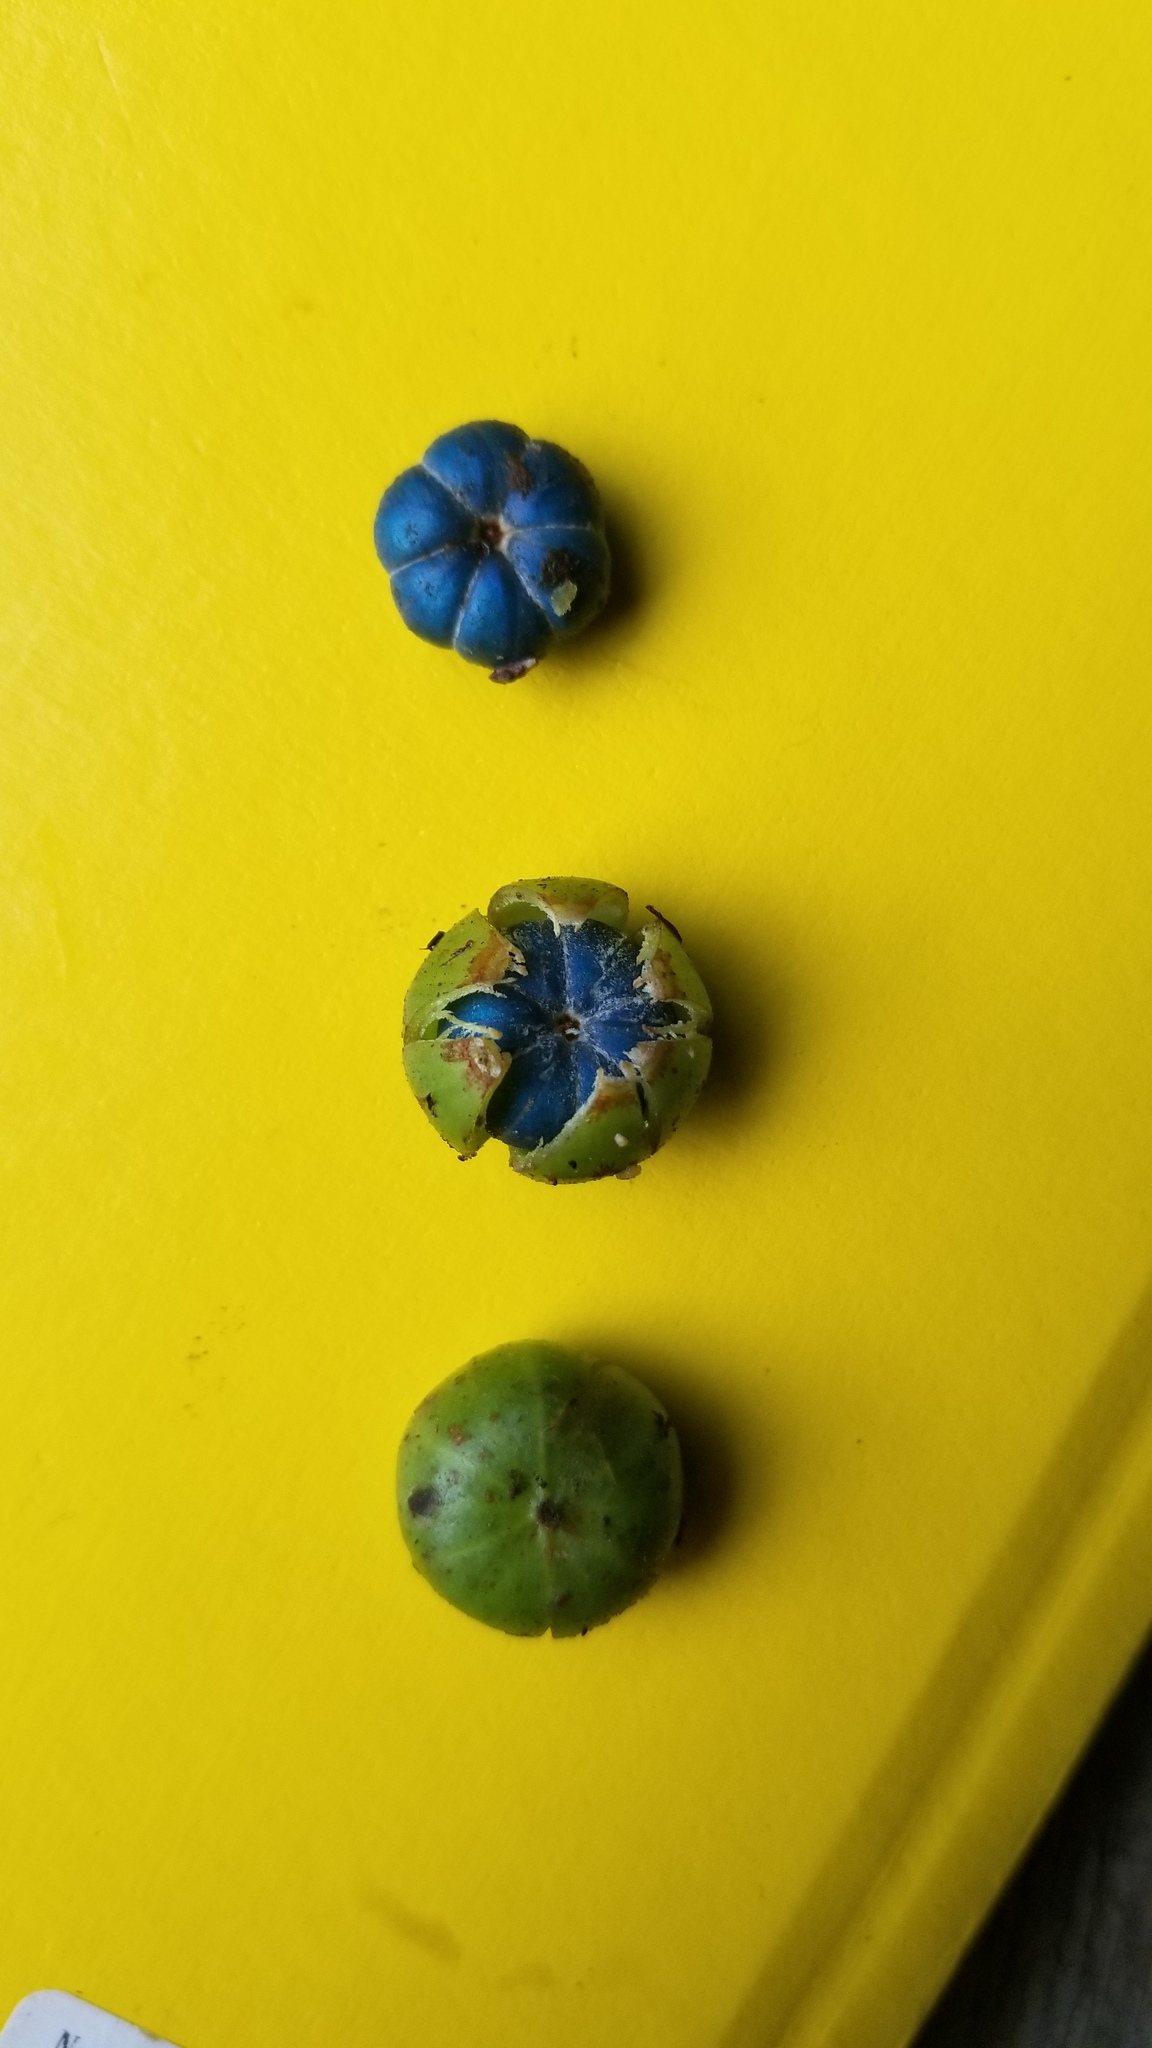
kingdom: Plantae
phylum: Tracheophyta
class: Magnoliopsida
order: Malpighiales
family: Phyllanthaceae
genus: Margaritaria
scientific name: Margaritaria nobilis
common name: Goose berry
